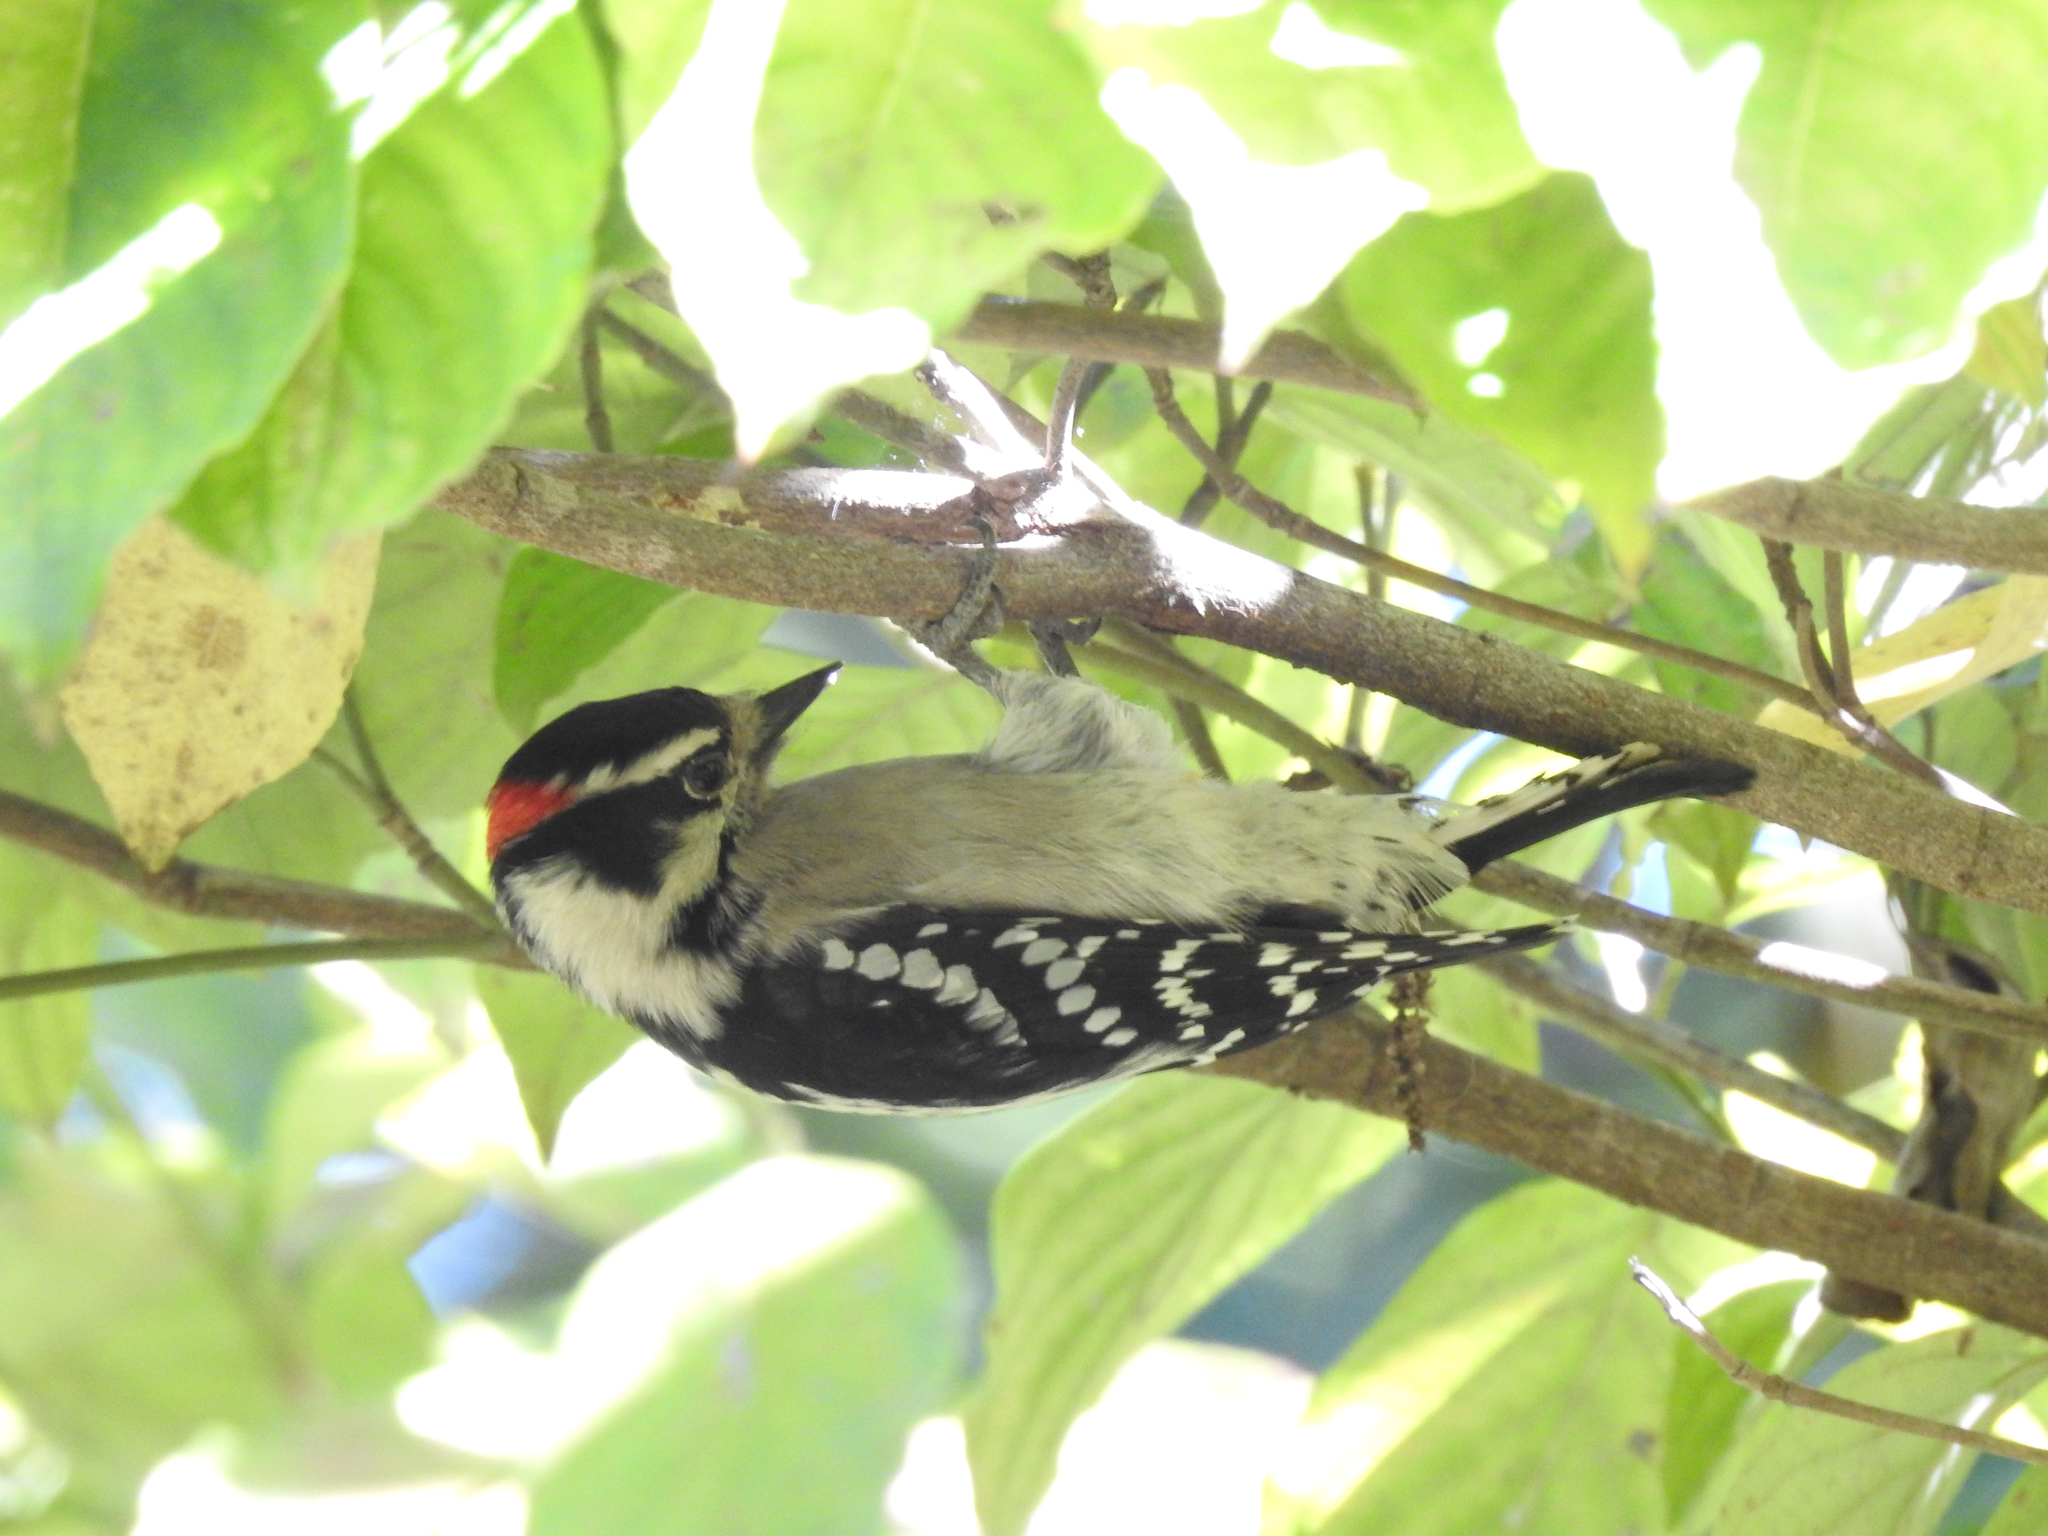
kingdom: Animalia
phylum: Chordata
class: Aves
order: Piciformes
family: Picidae
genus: Dryobates
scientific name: Dryobates pubescens
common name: Downy woodpecker
